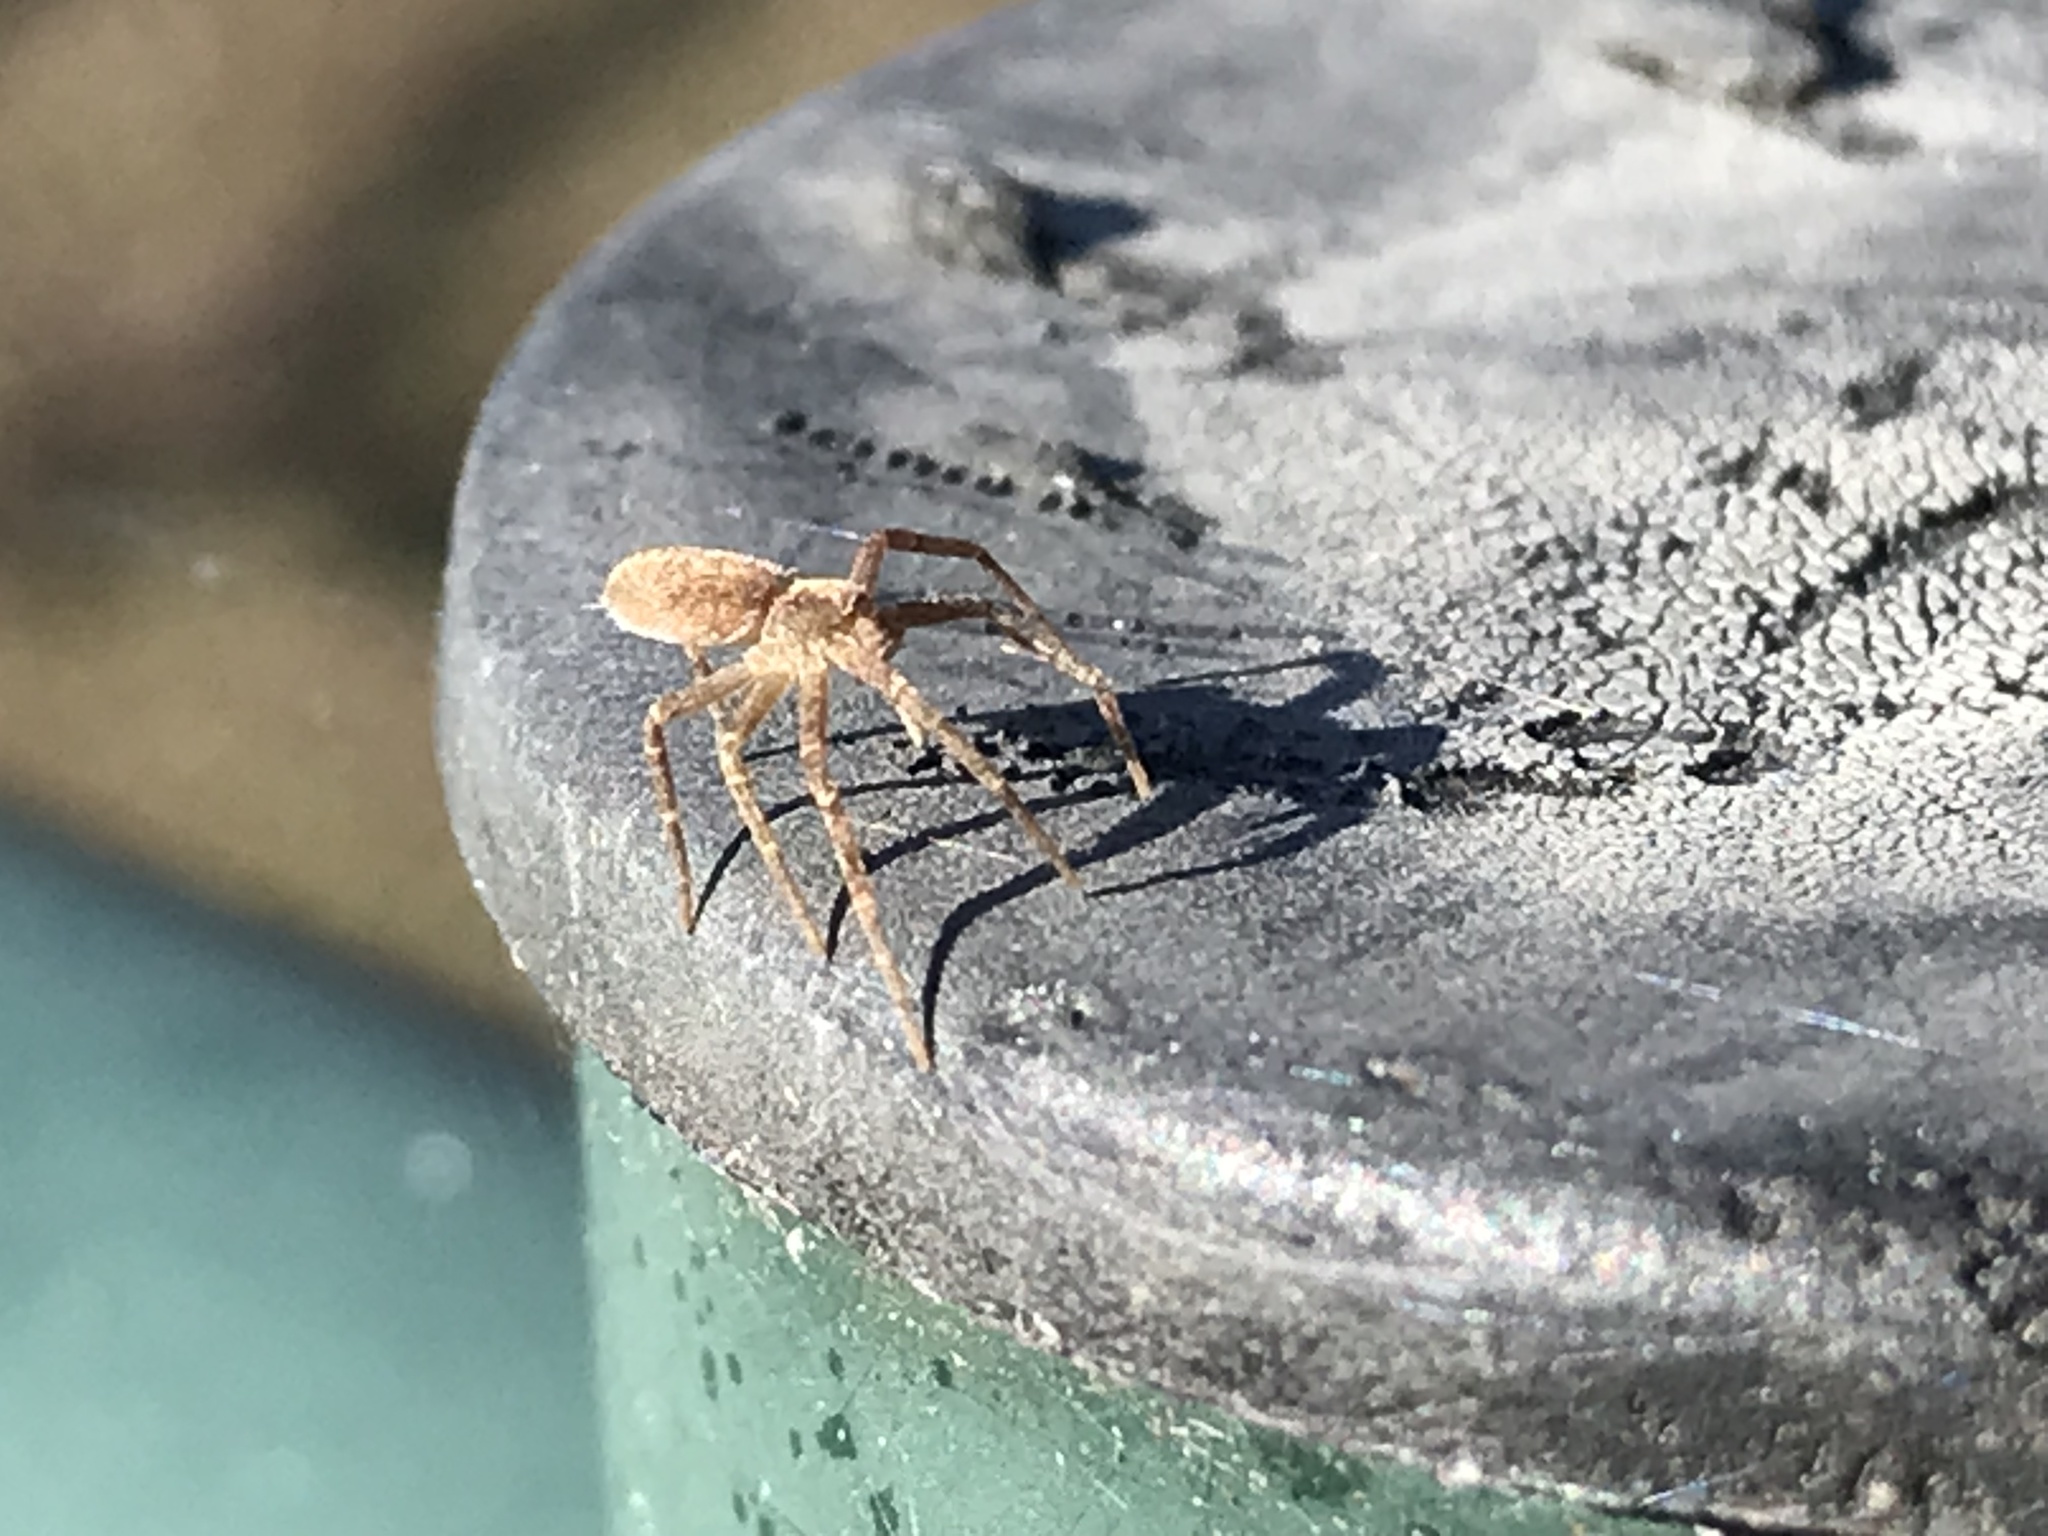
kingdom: Animalia
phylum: Arthropoda
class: Arachnida
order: Araneae
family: Pisauridae
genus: Pisaurina
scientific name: Pisaurina mira
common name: American nursery web spider
